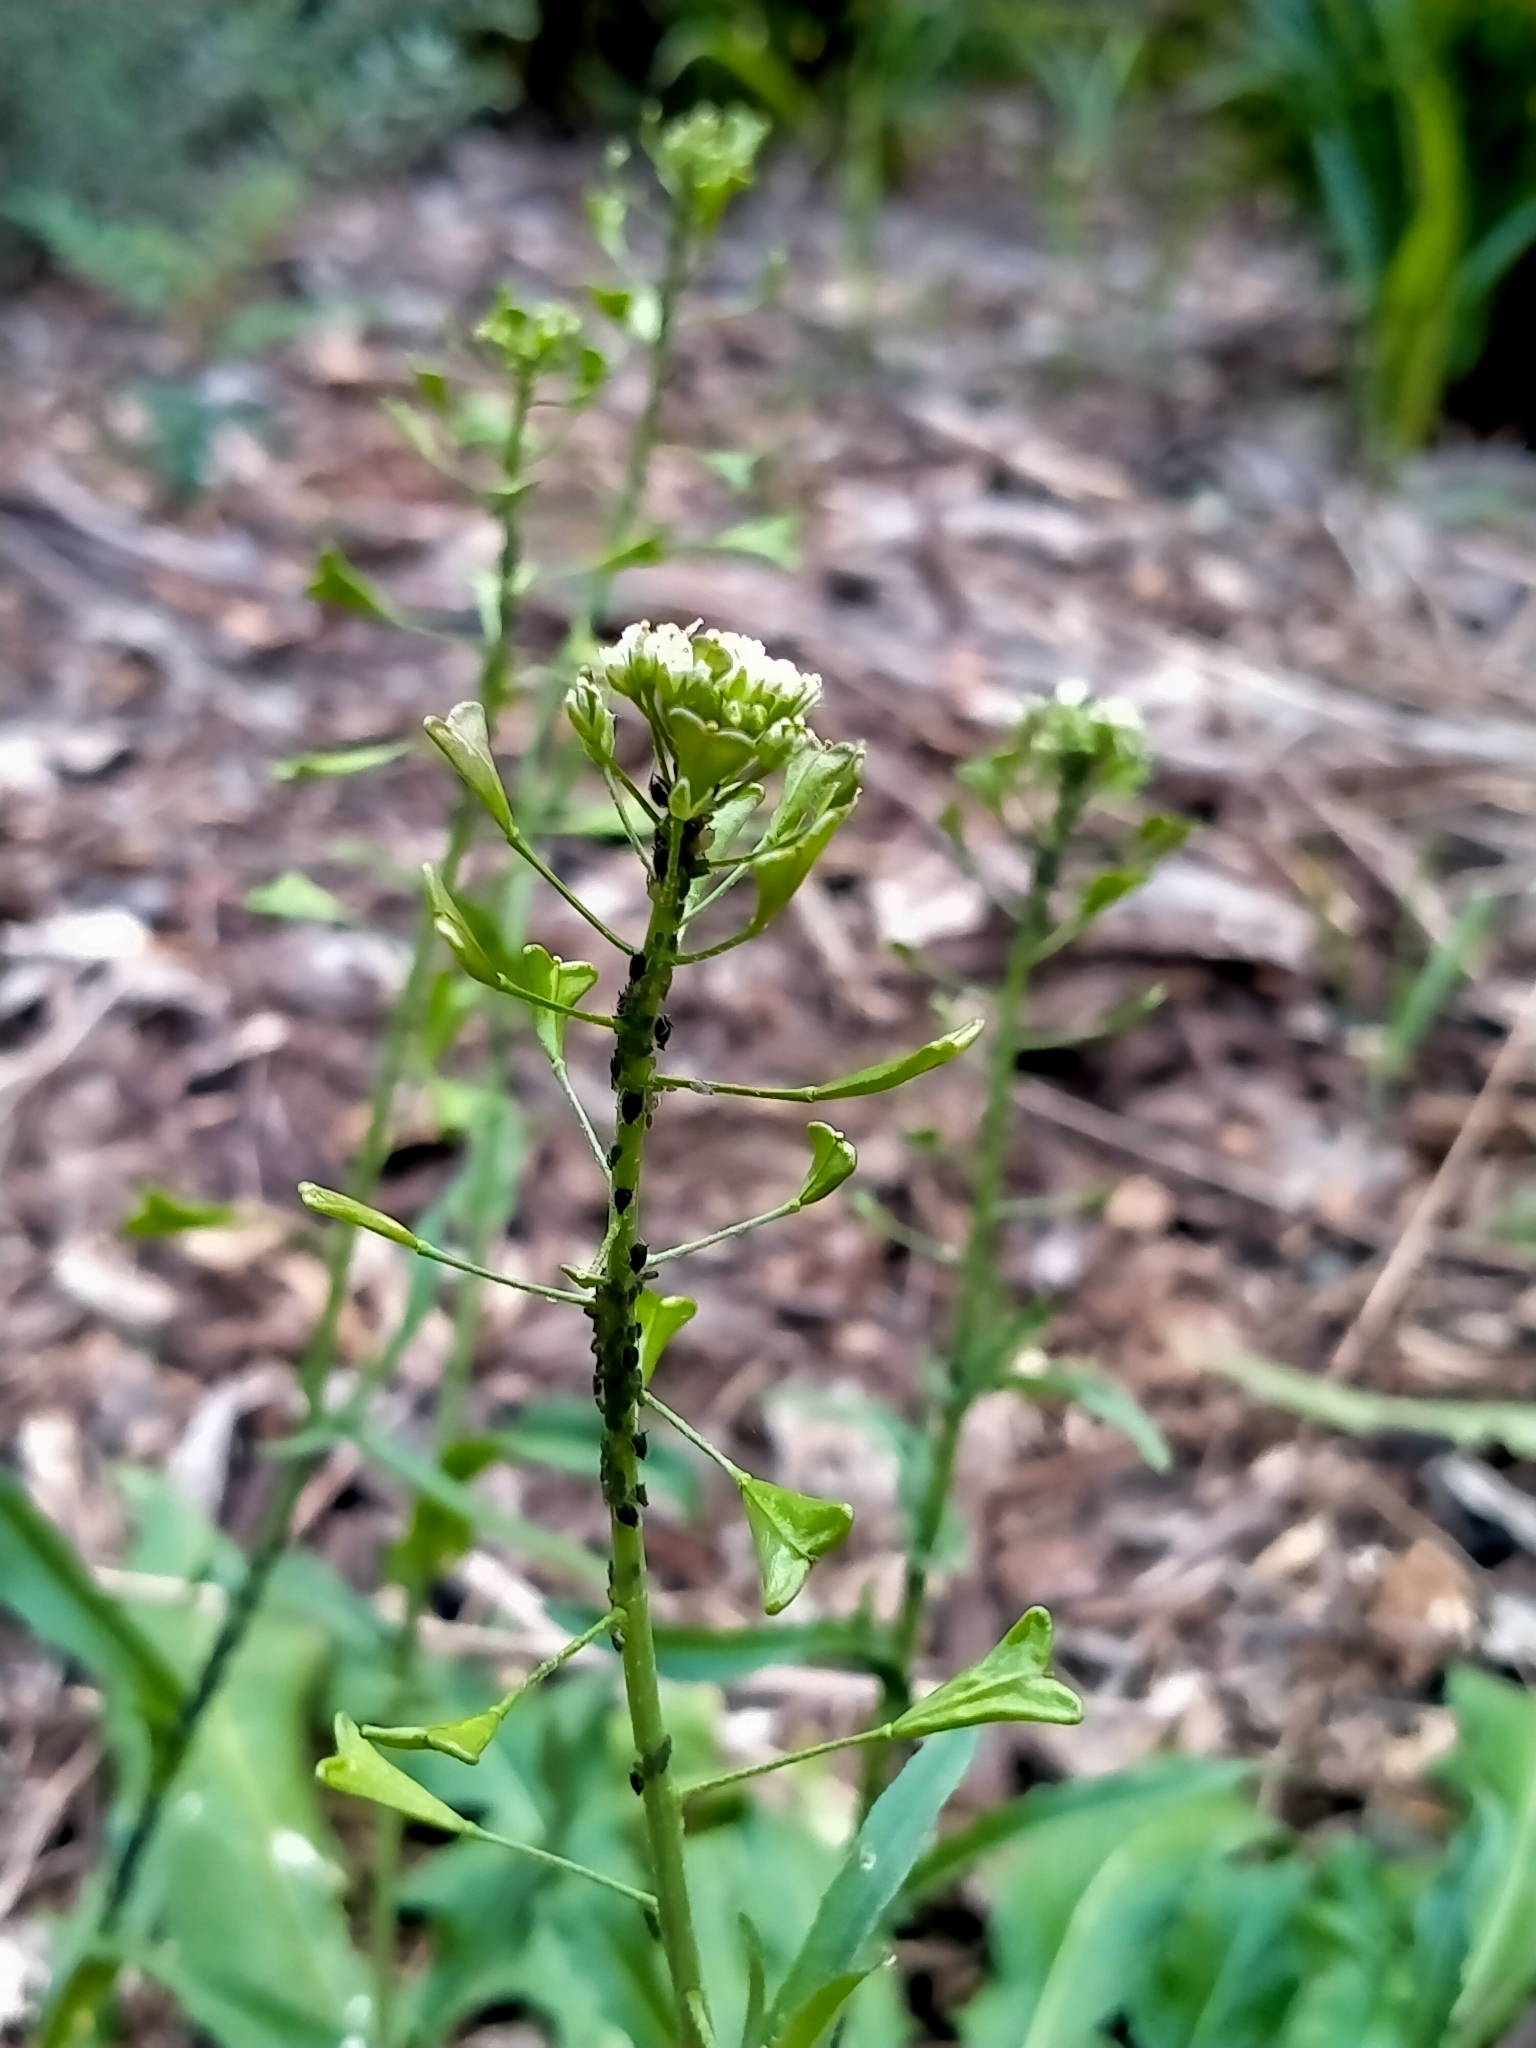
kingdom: Plantae
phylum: Tracheophyta
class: Magnoliopsida
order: Brassicales
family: Brassicaceae
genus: Capsella
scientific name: Capsella bursa-pastoris
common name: Shepherd's purse
